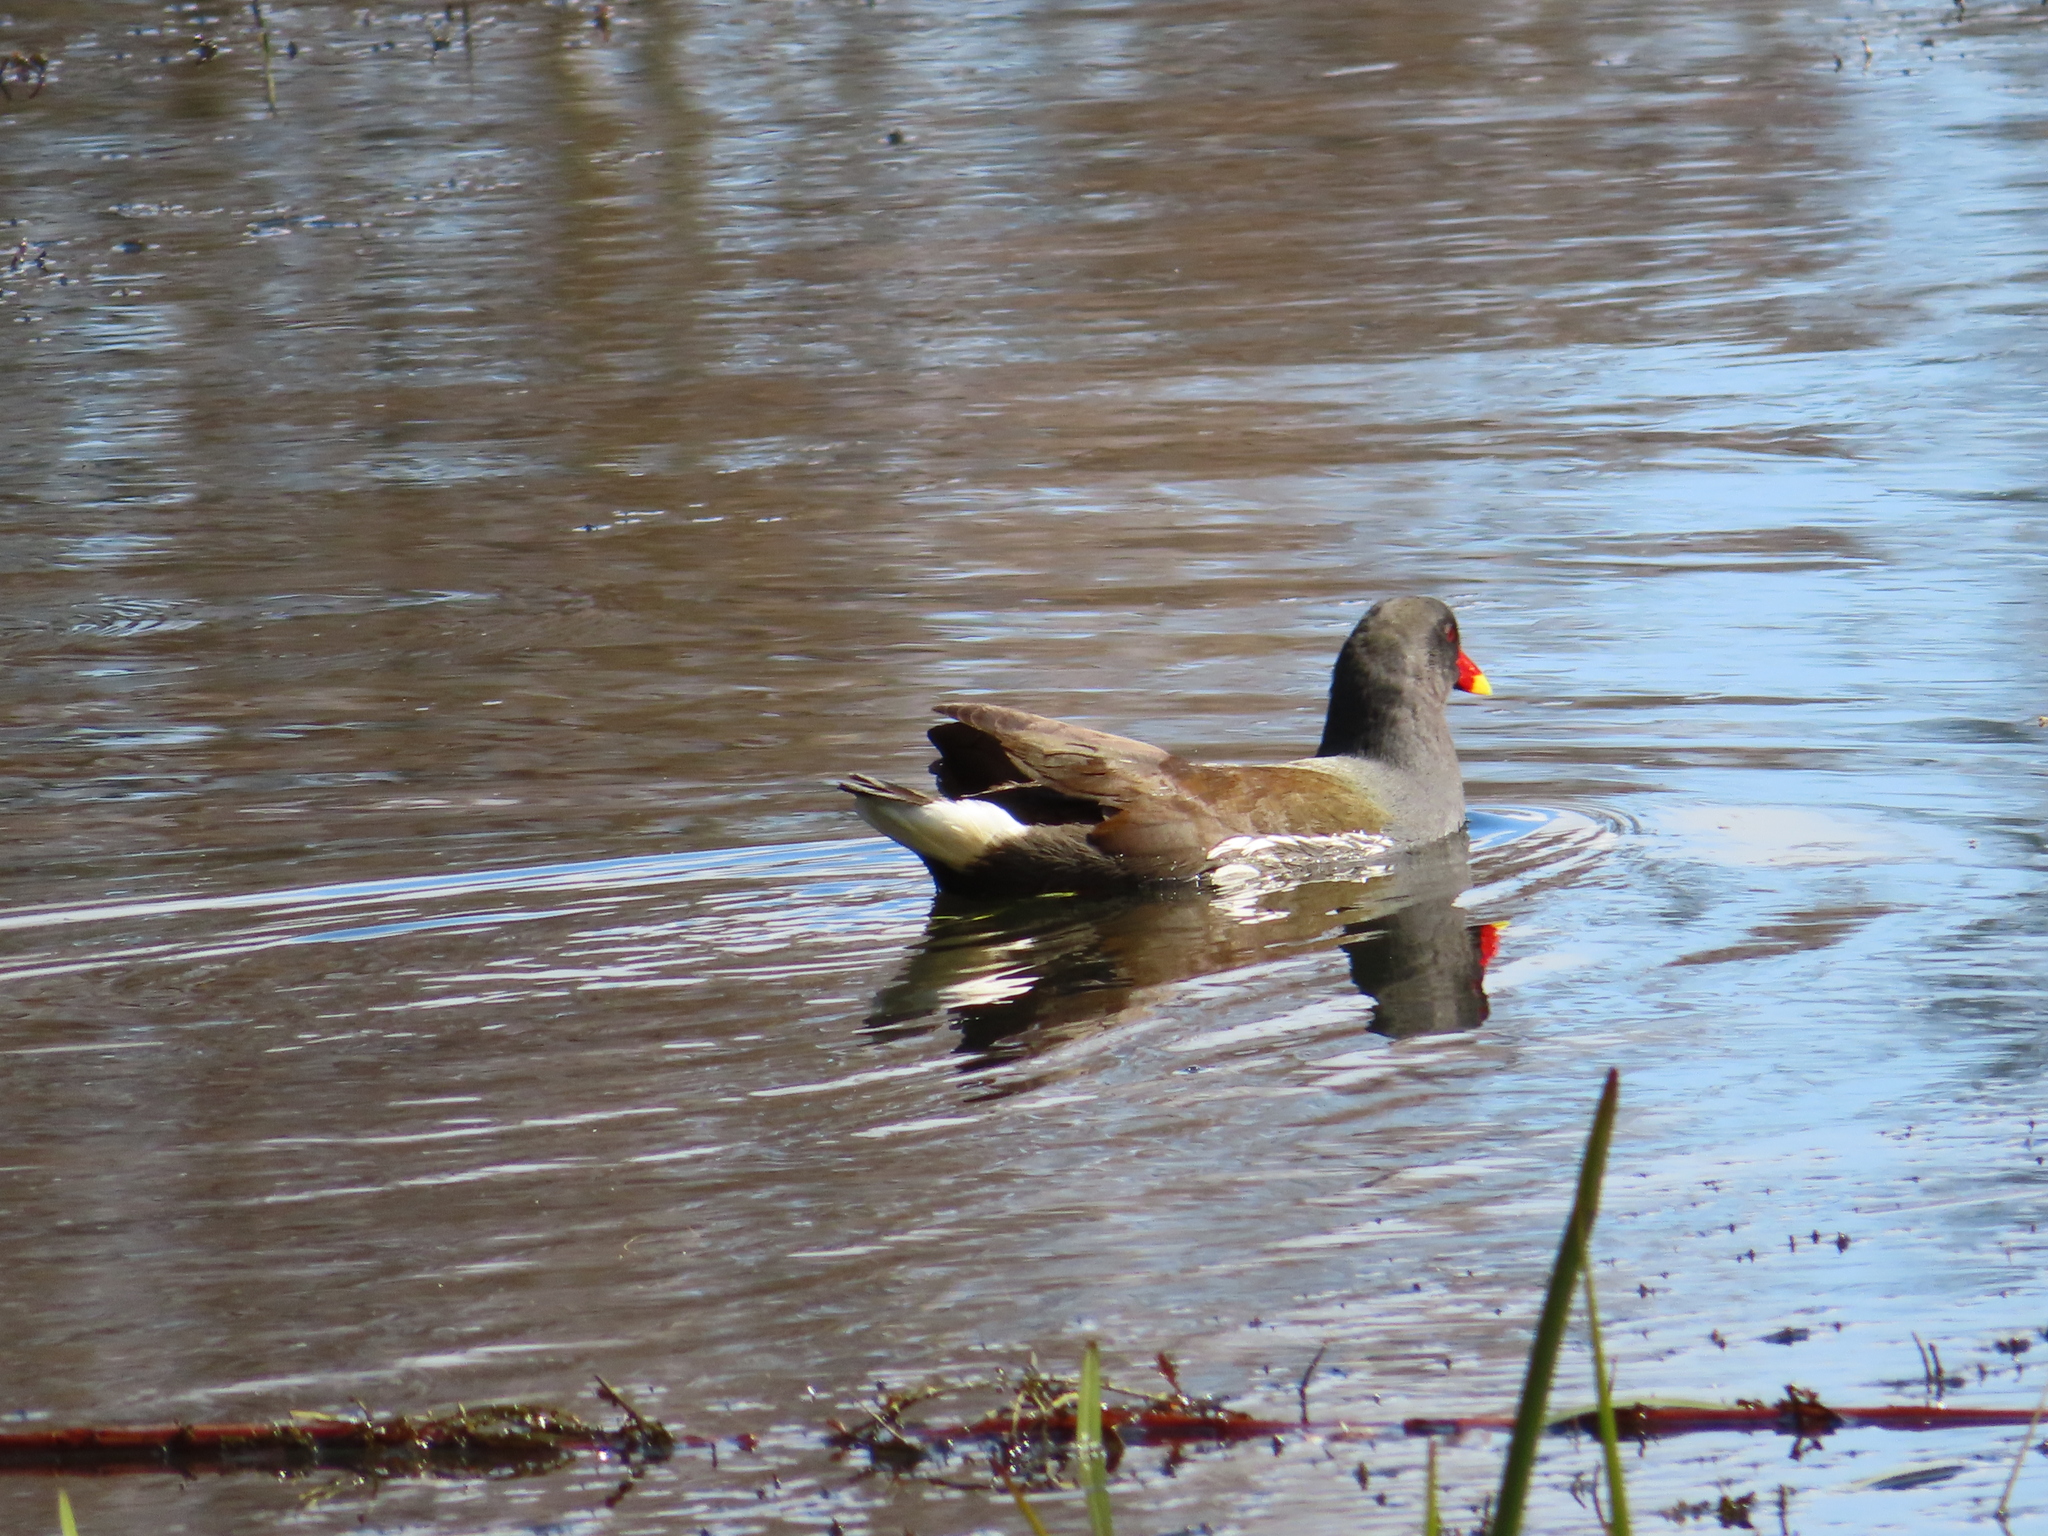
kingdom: Animalia
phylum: Chordata
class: Aves
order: Gruiformes
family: Rallidae
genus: Gallinula
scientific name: Gallinula chloropus
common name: Common moorhen
